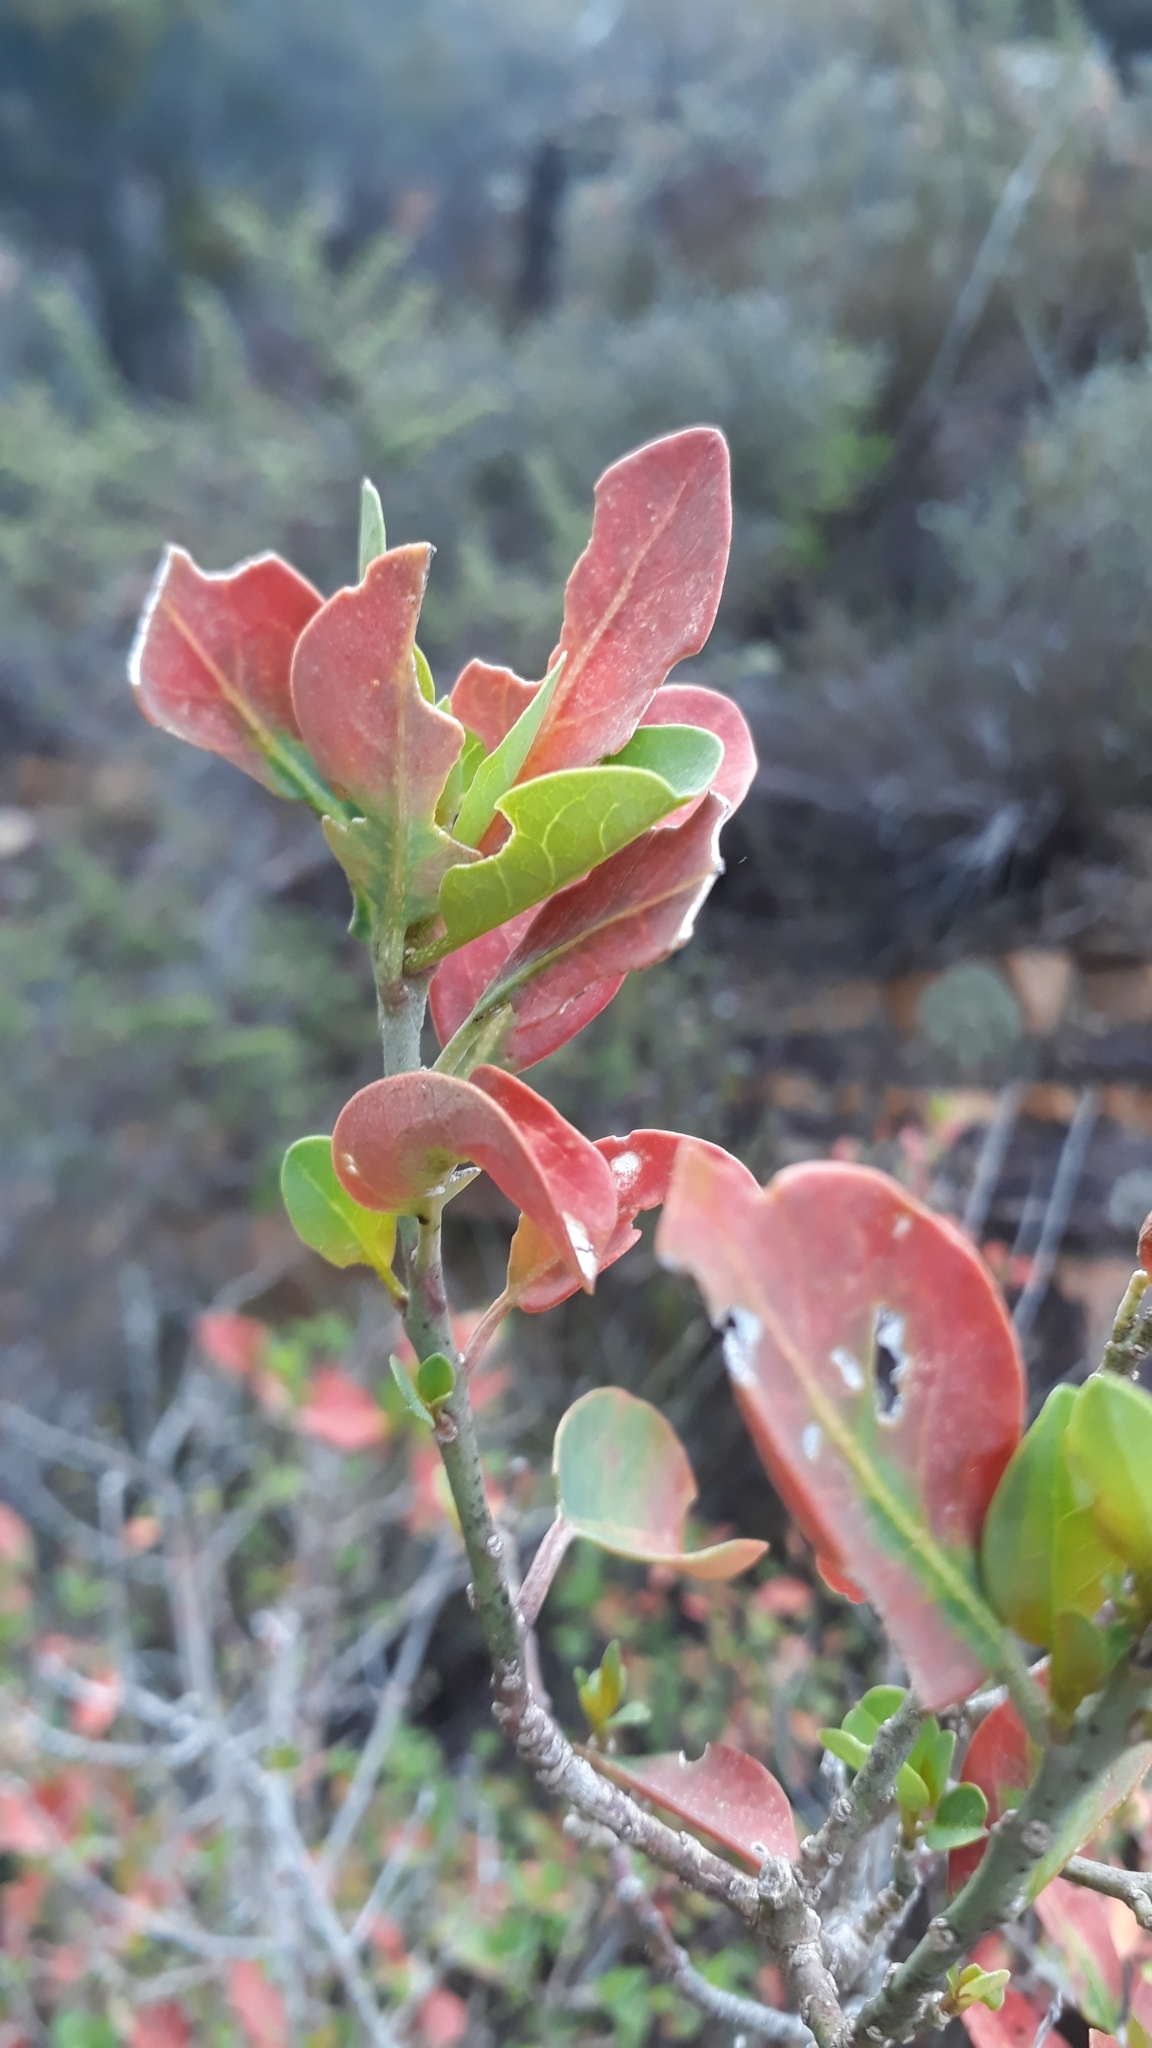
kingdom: Plantae
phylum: Tracheophyta
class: Magnoliopsida
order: Malpighiales
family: Peraceae
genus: Clutia
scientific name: Clutia pulchella
